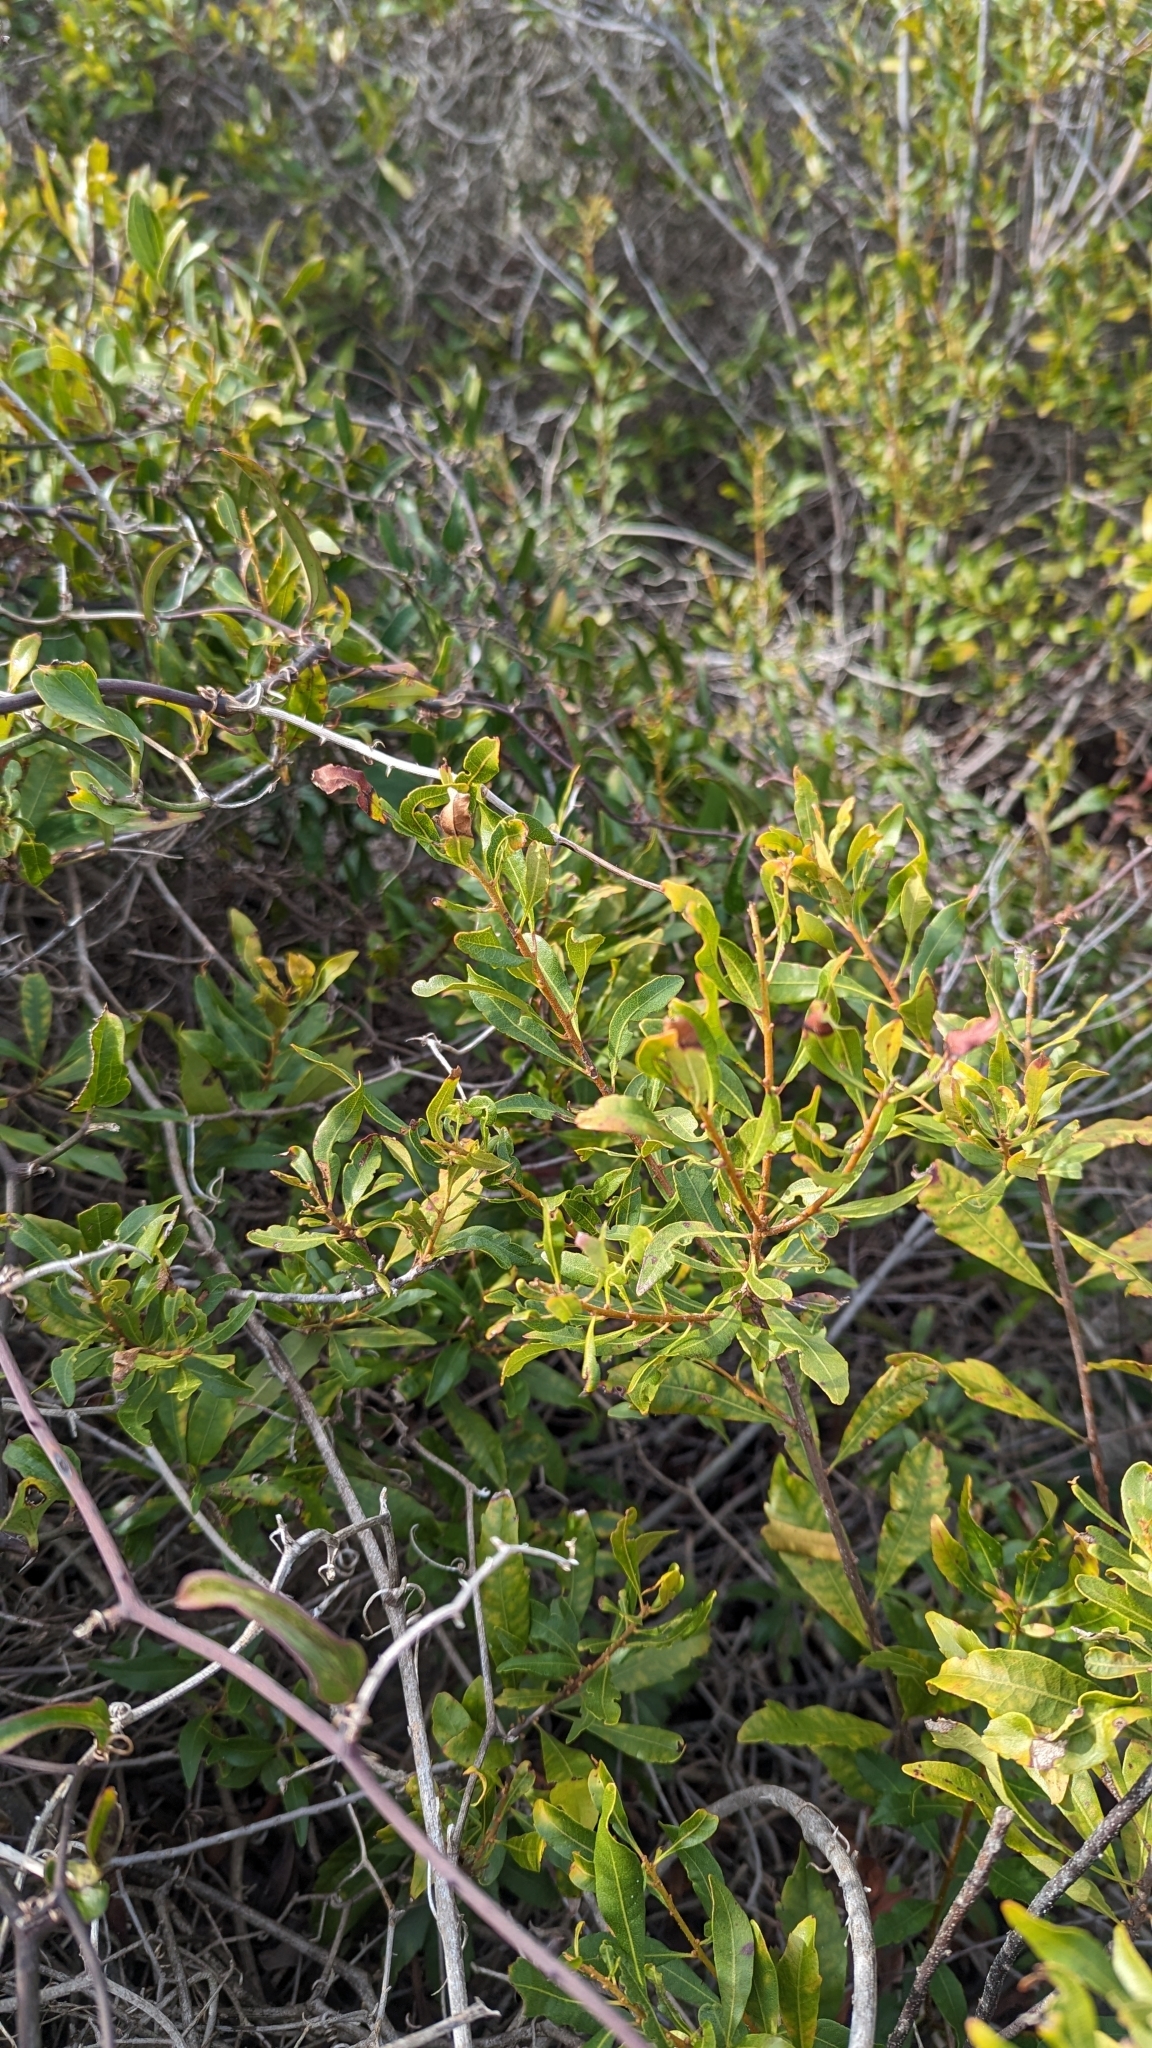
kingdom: Plantae
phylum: Tracheophyta
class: Magnoliopsida
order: Fagales
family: Myricaceae
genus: Morella
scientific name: Morella cerifera
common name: Wax myrtle
